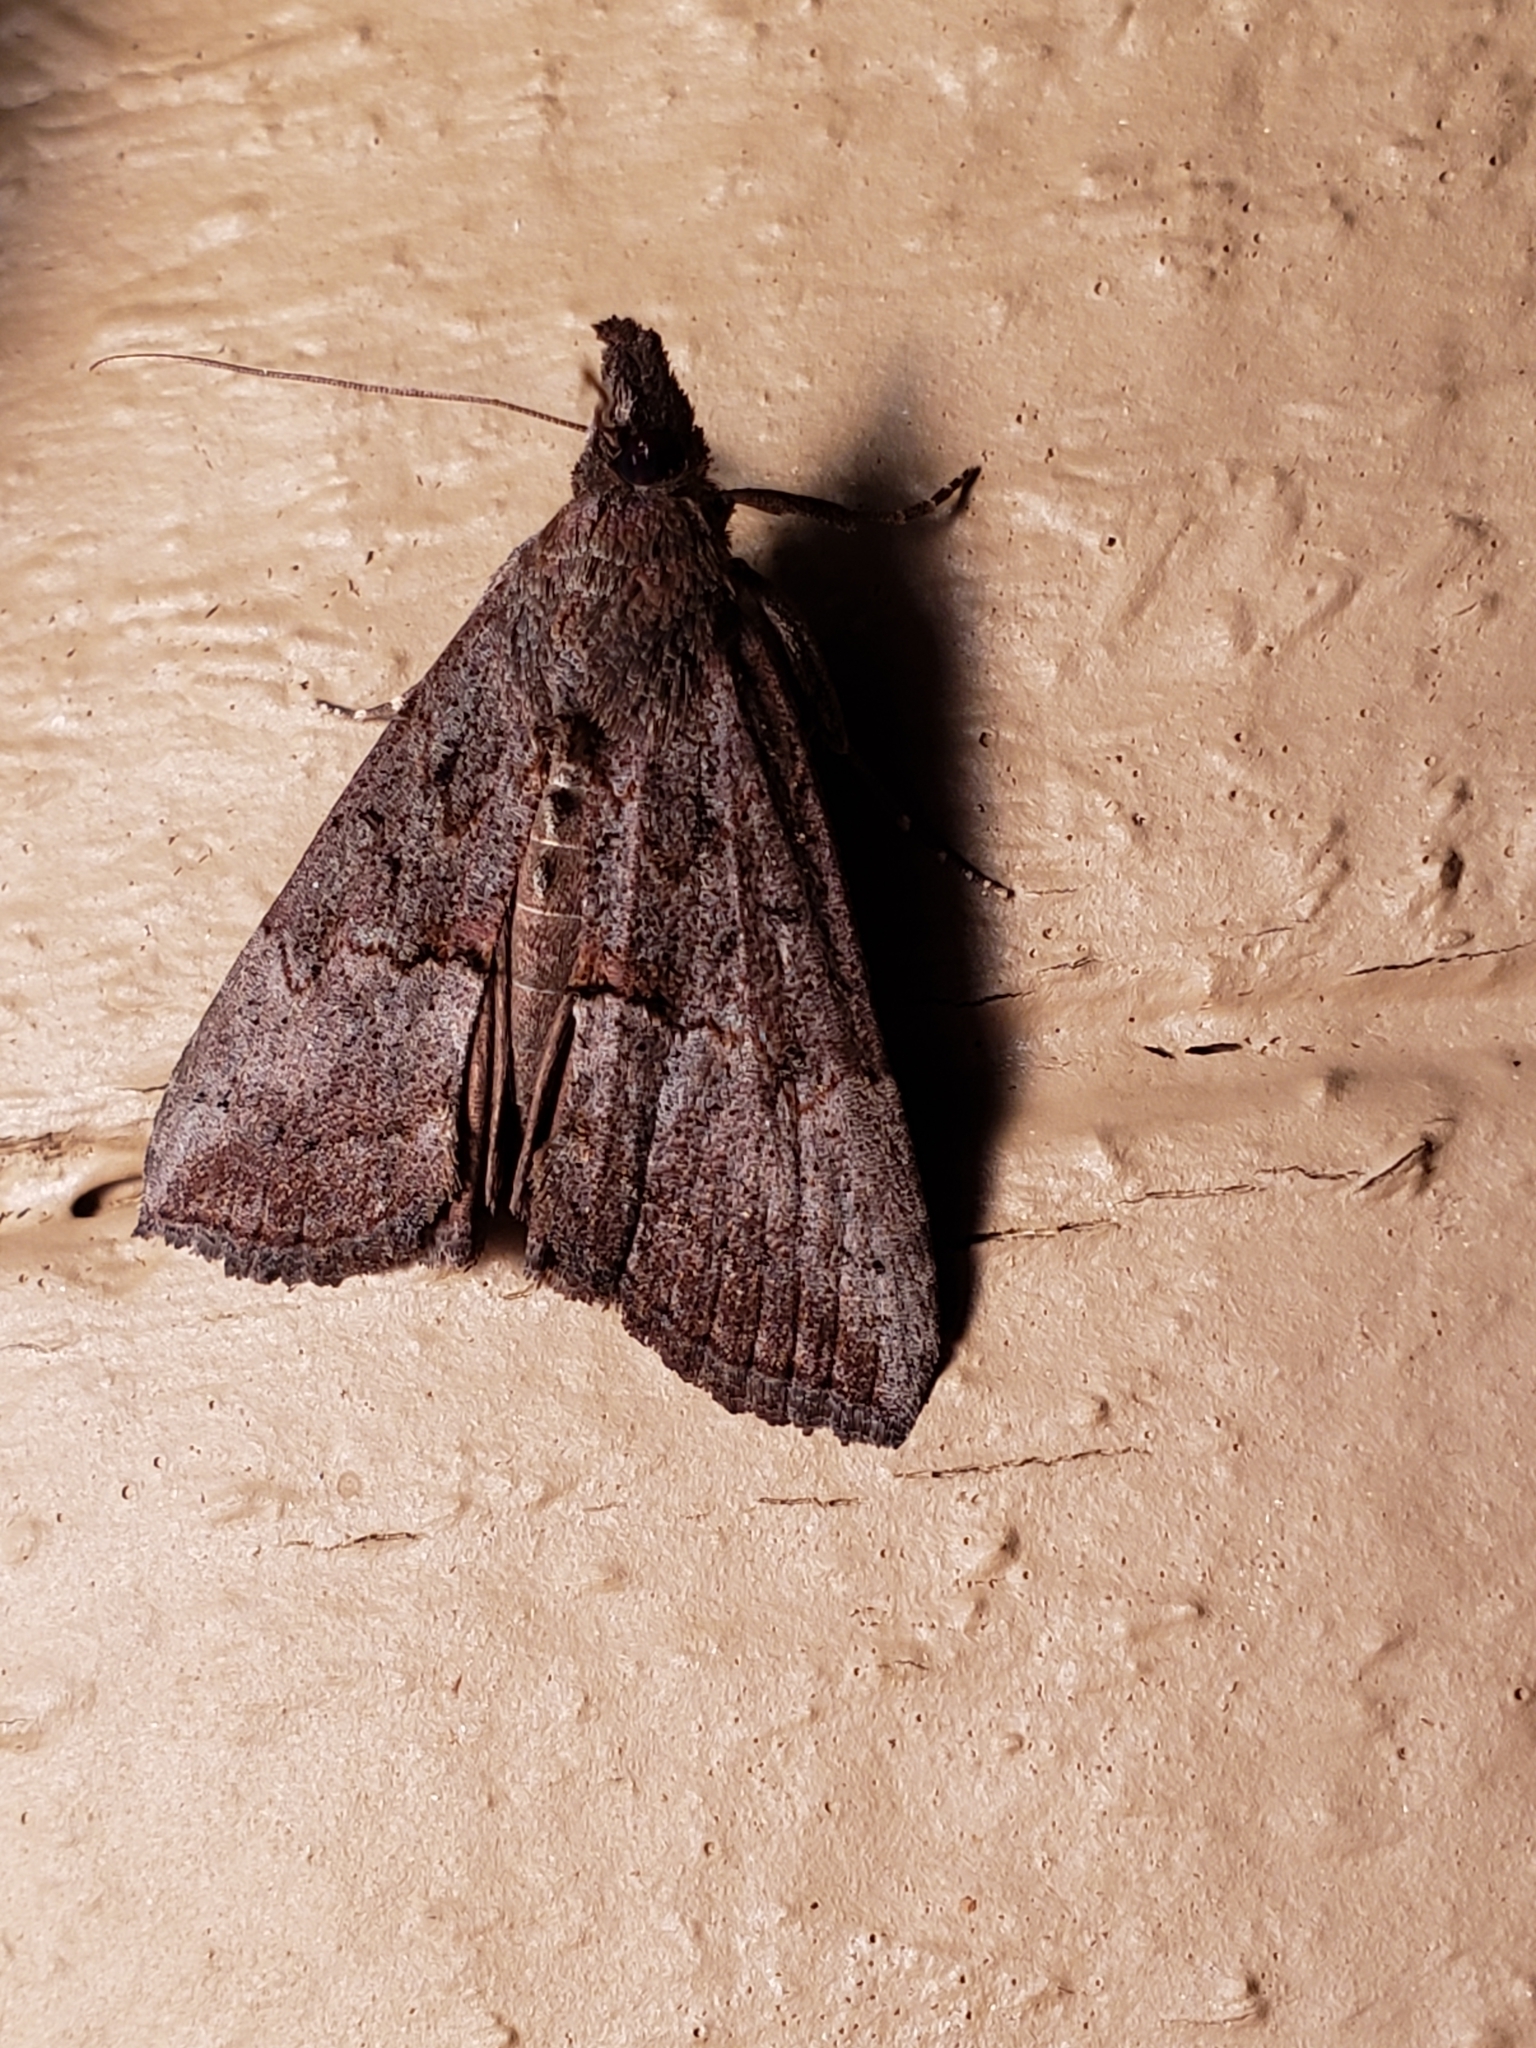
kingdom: Animalia
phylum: Arthropoda
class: Insecta
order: Lepidoptera
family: Erebidae
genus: Hypena
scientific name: Hypena scabra
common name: Green cloverworm
